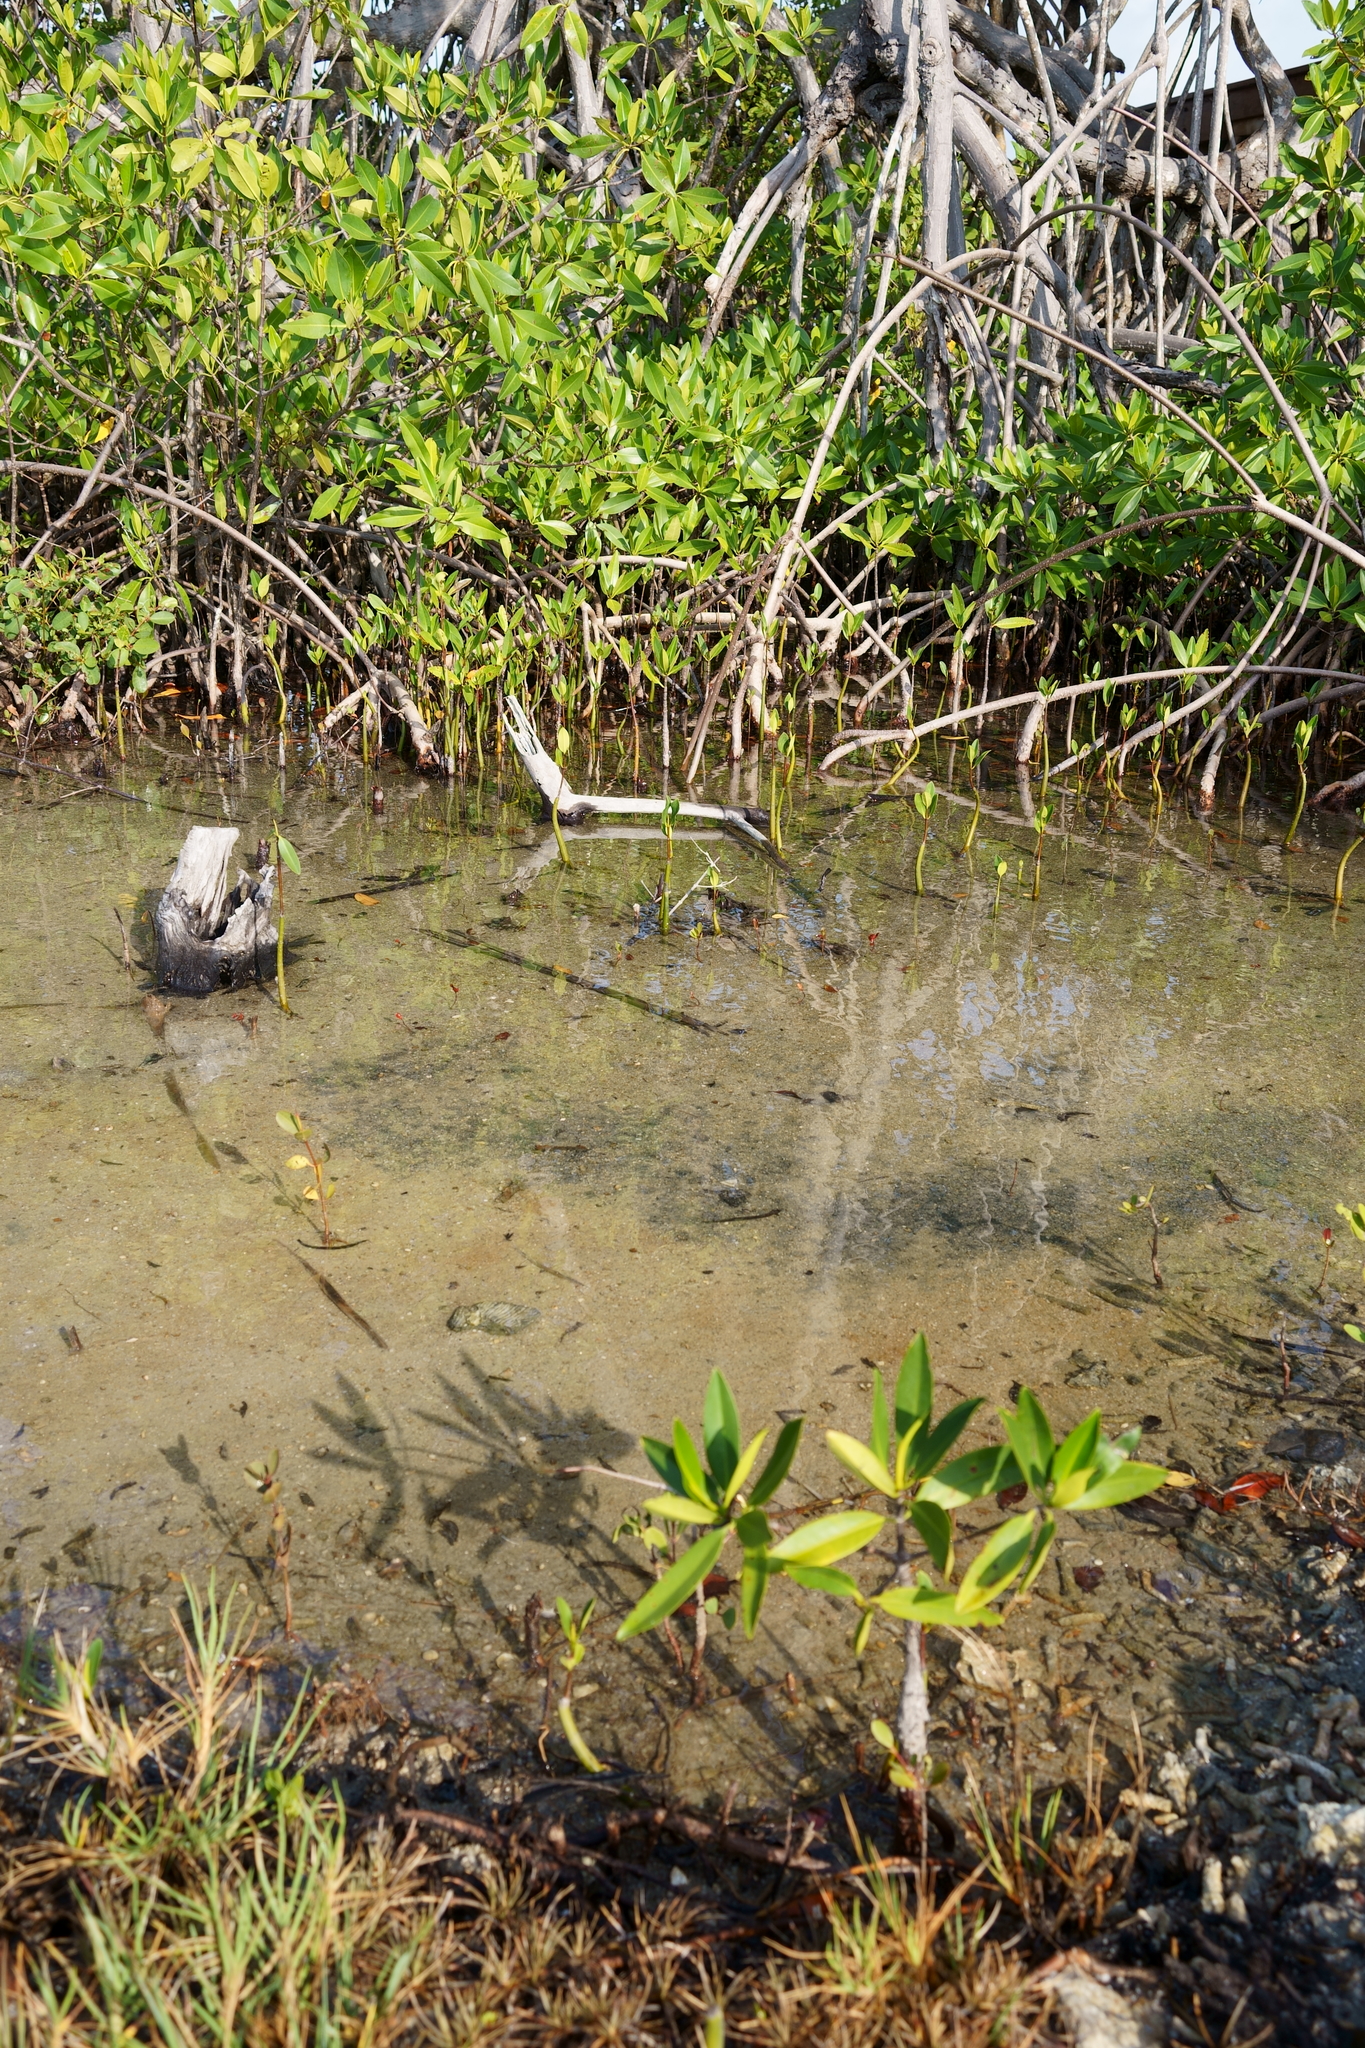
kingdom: Plantae
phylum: Tracheophyta
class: Magnoliopsida
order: Malpighiales
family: Rhizophoraceae
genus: Rhizophora
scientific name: Rhizophora mangle
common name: Red mangrove
